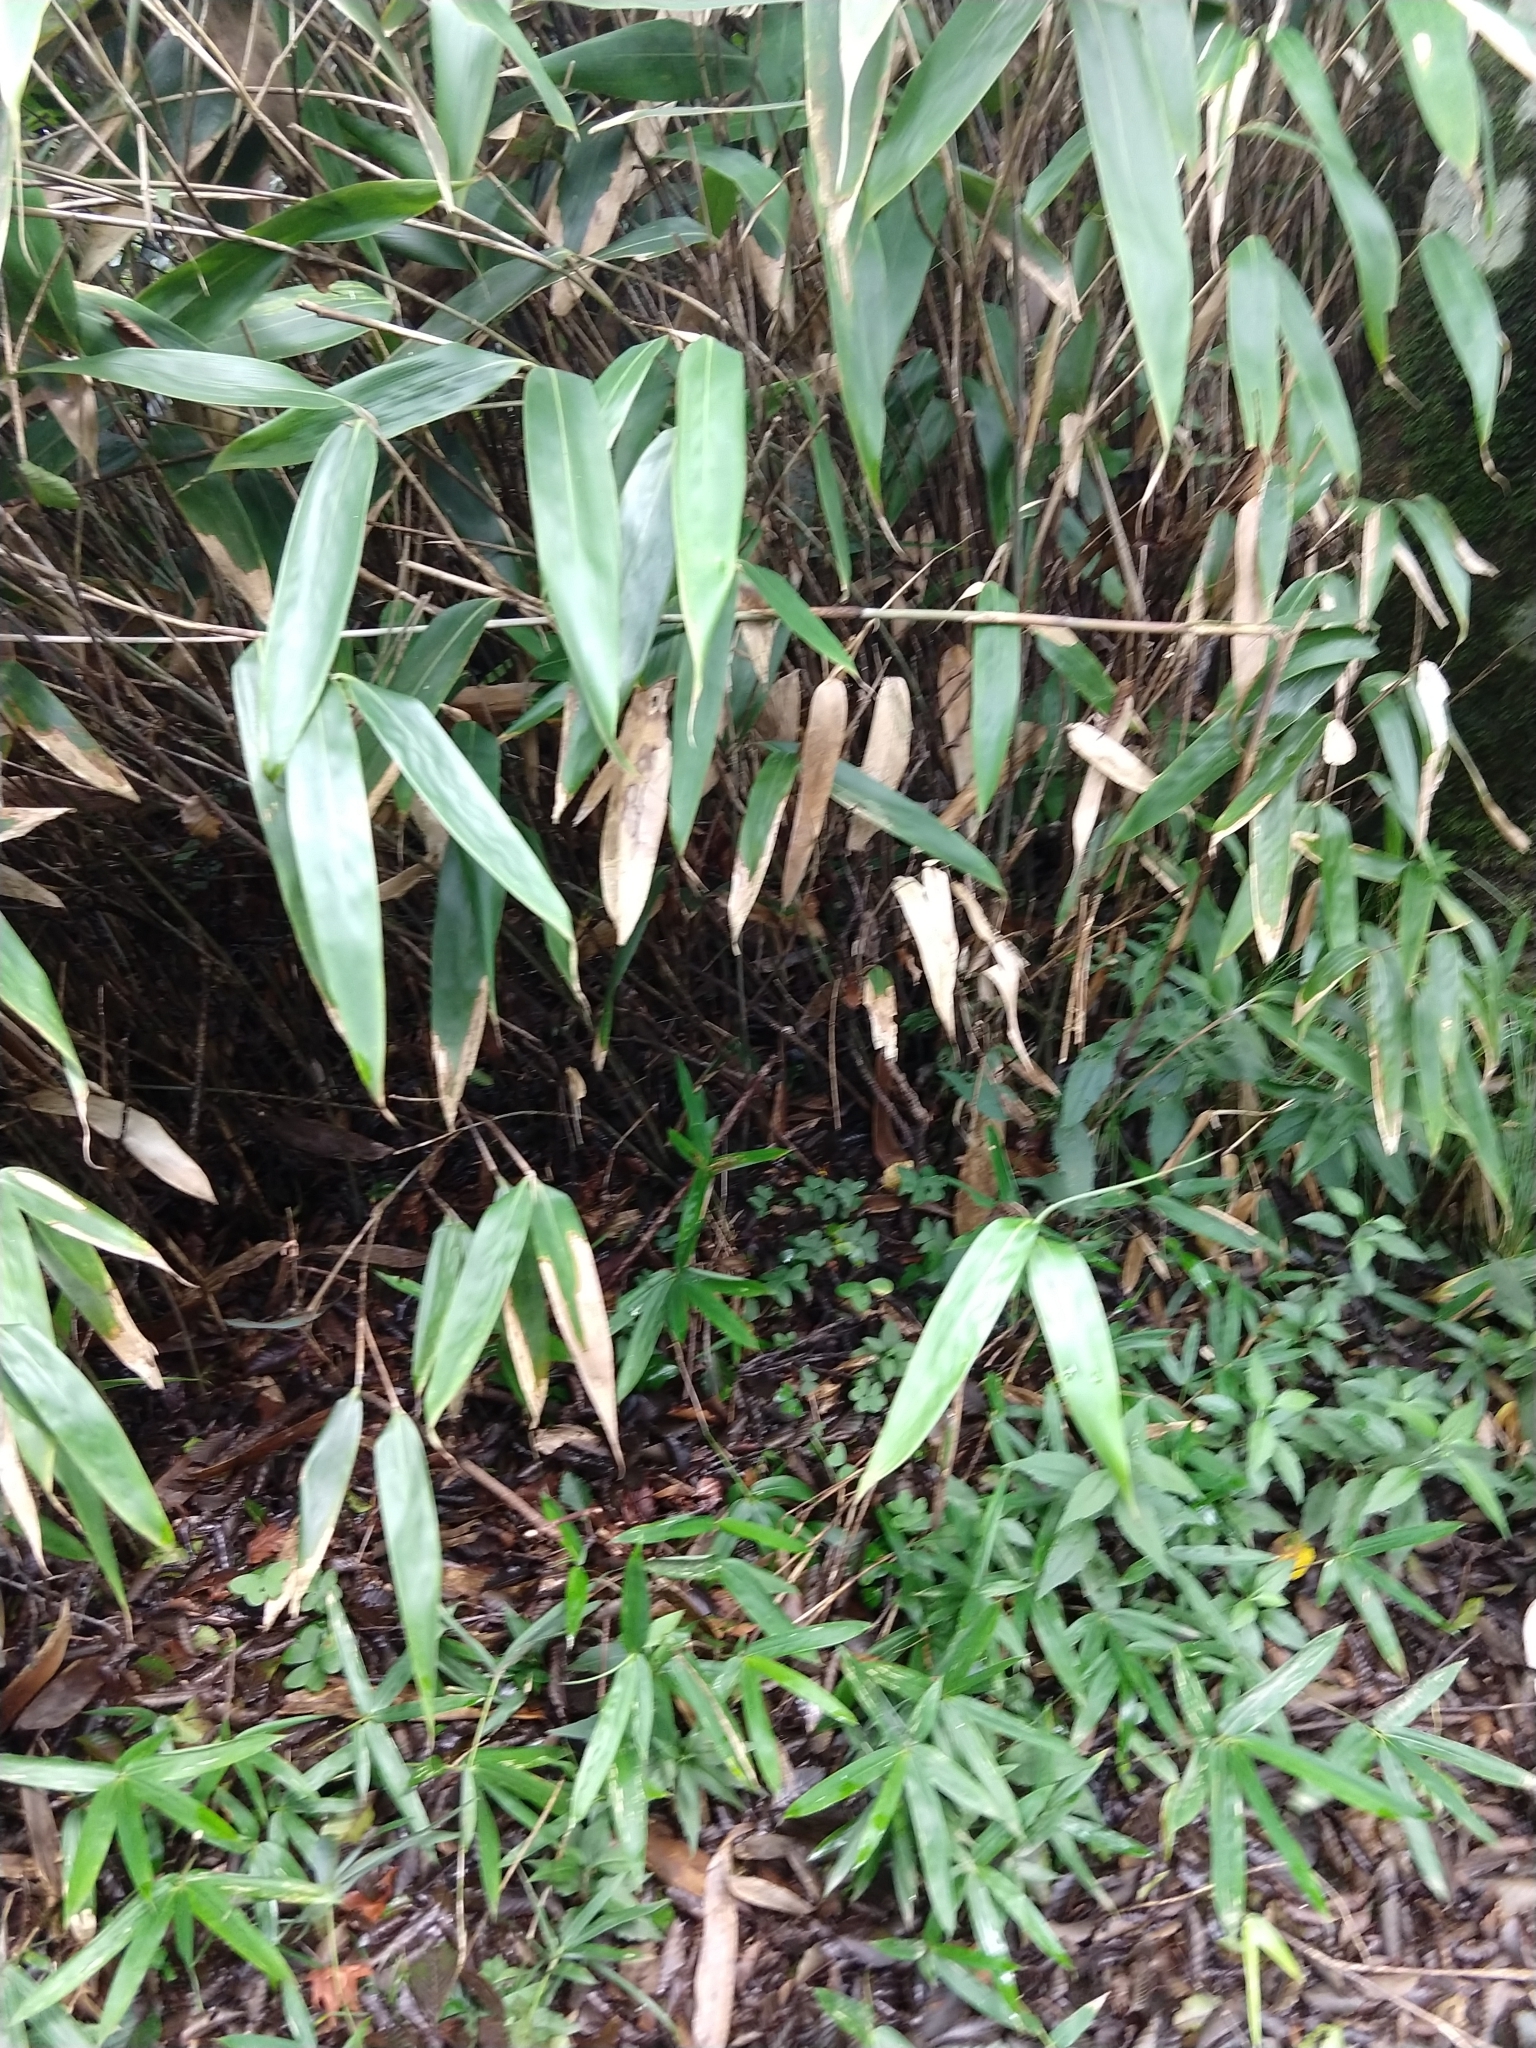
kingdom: Plantae
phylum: Tracheophyta
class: Magnoliopsida
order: Oxalidales
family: Oxalidaceae
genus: Oxalis
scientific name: Oxalis nipponica
